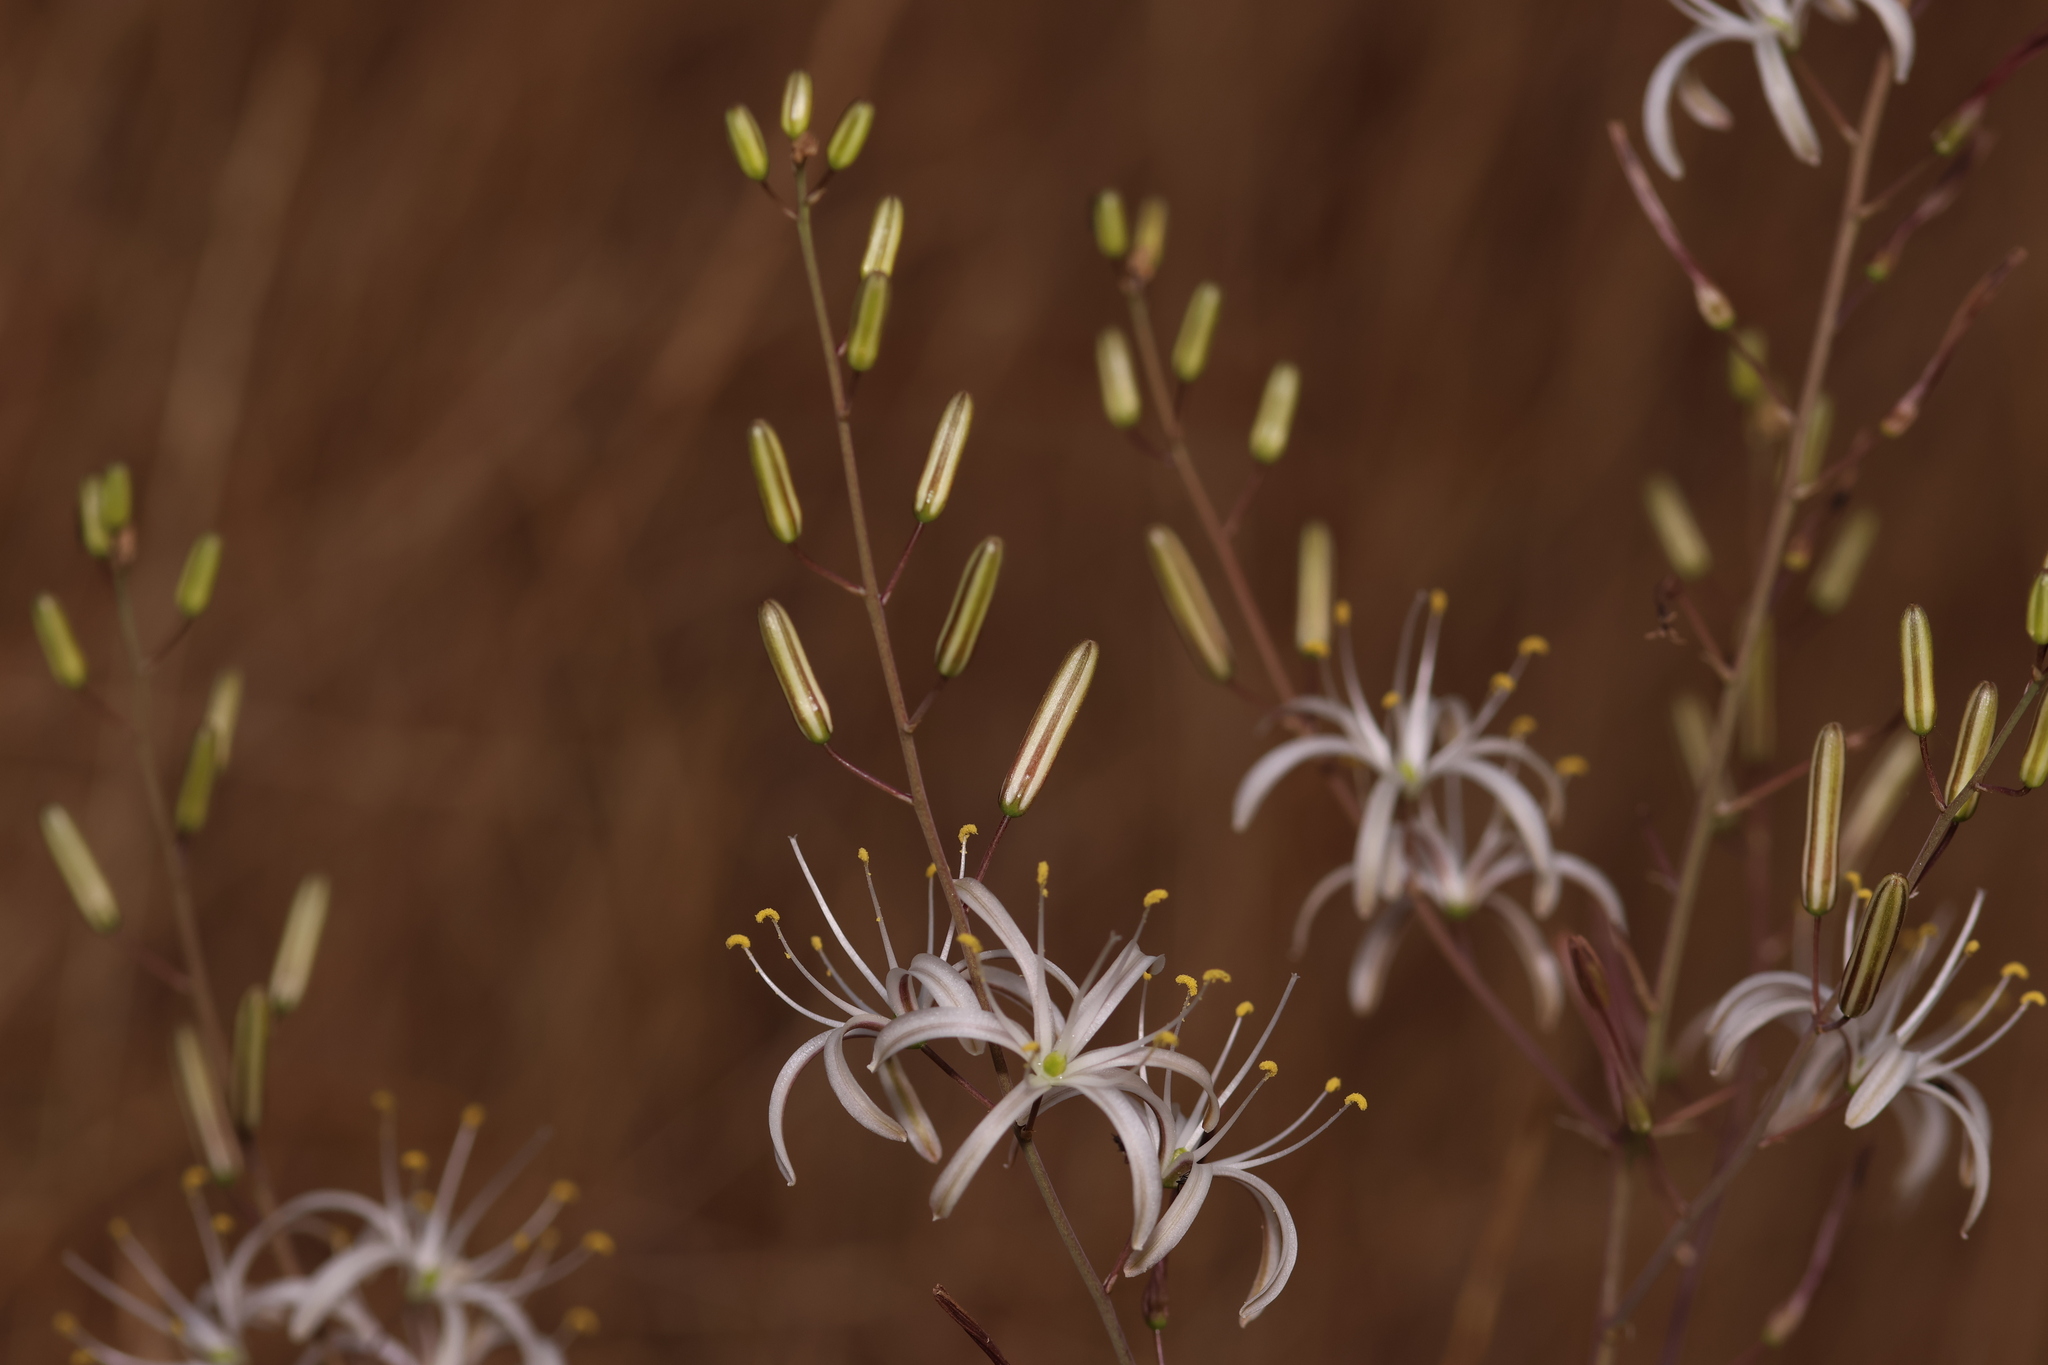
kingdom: Plantae
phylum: Tracheophyta
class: Liliopsida
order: Asparagales
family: Asparagaceae
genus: Chlorogalum
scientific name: Chlorogalum pomeridianum
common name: Amole
